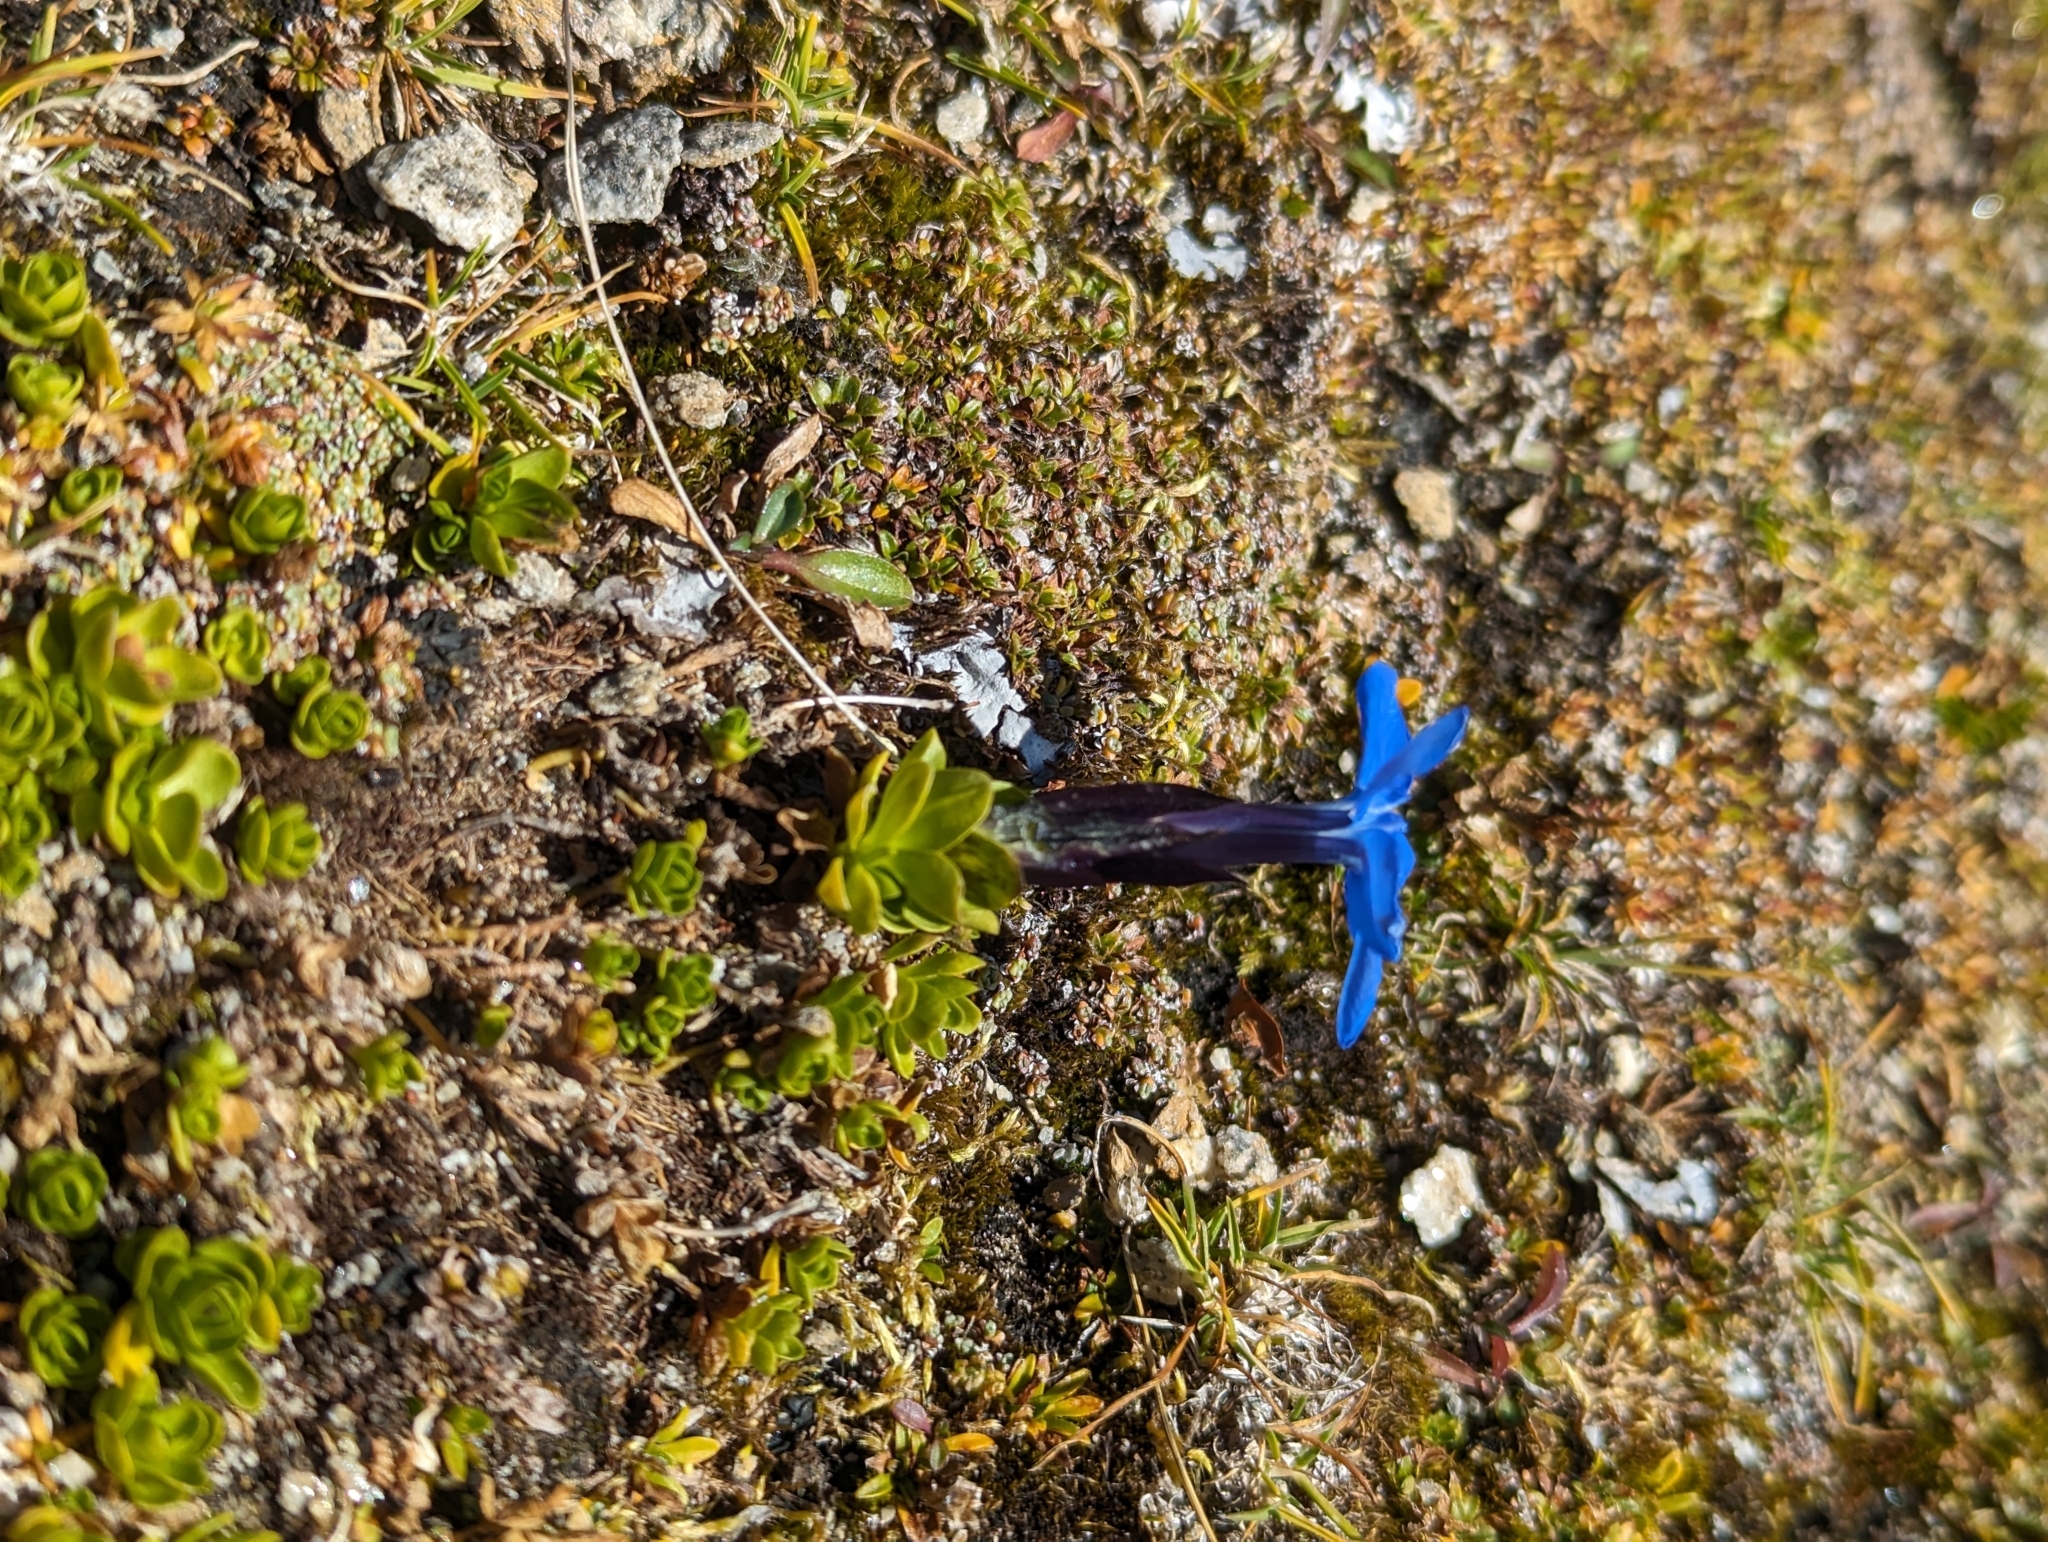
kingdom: Plantae
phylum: Tracheophyta
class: Magnoliopsida
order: Gentianales
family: Gentianaceae
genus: Gentiana
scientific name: Gentiana bavarica
